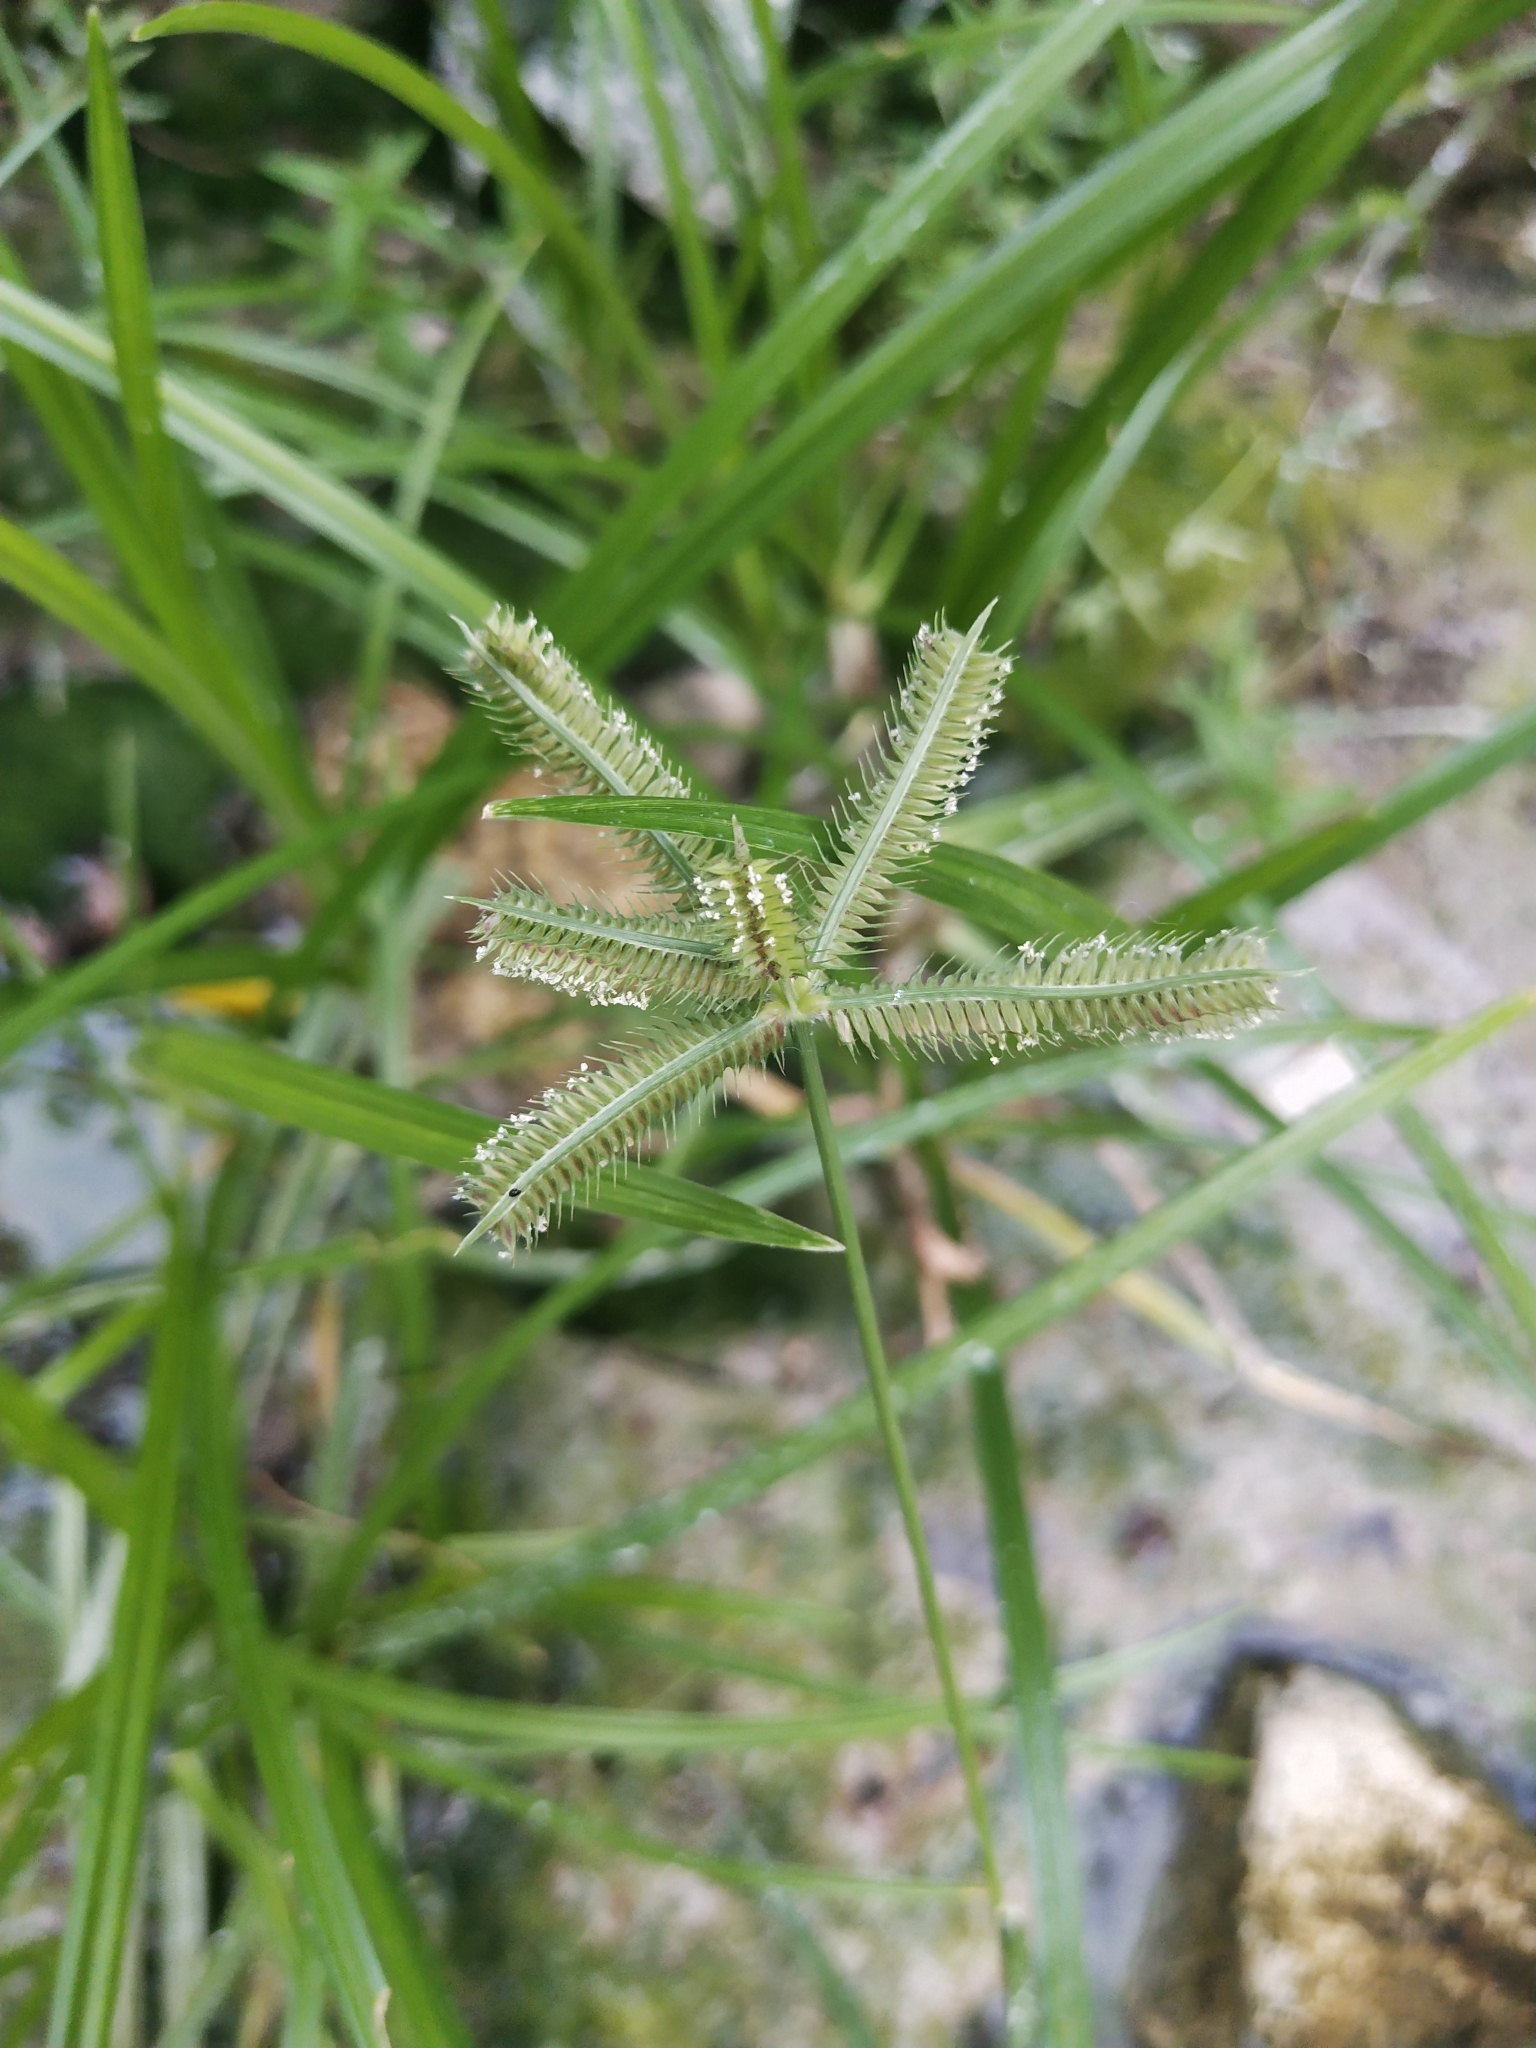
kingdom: Plantae
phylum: Tracheophyta
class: Liliopsida
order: Poales
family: Poaceae
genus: Dactyloctenium
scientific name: Dactyloctenium aegyptium
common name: Egyptian grass
